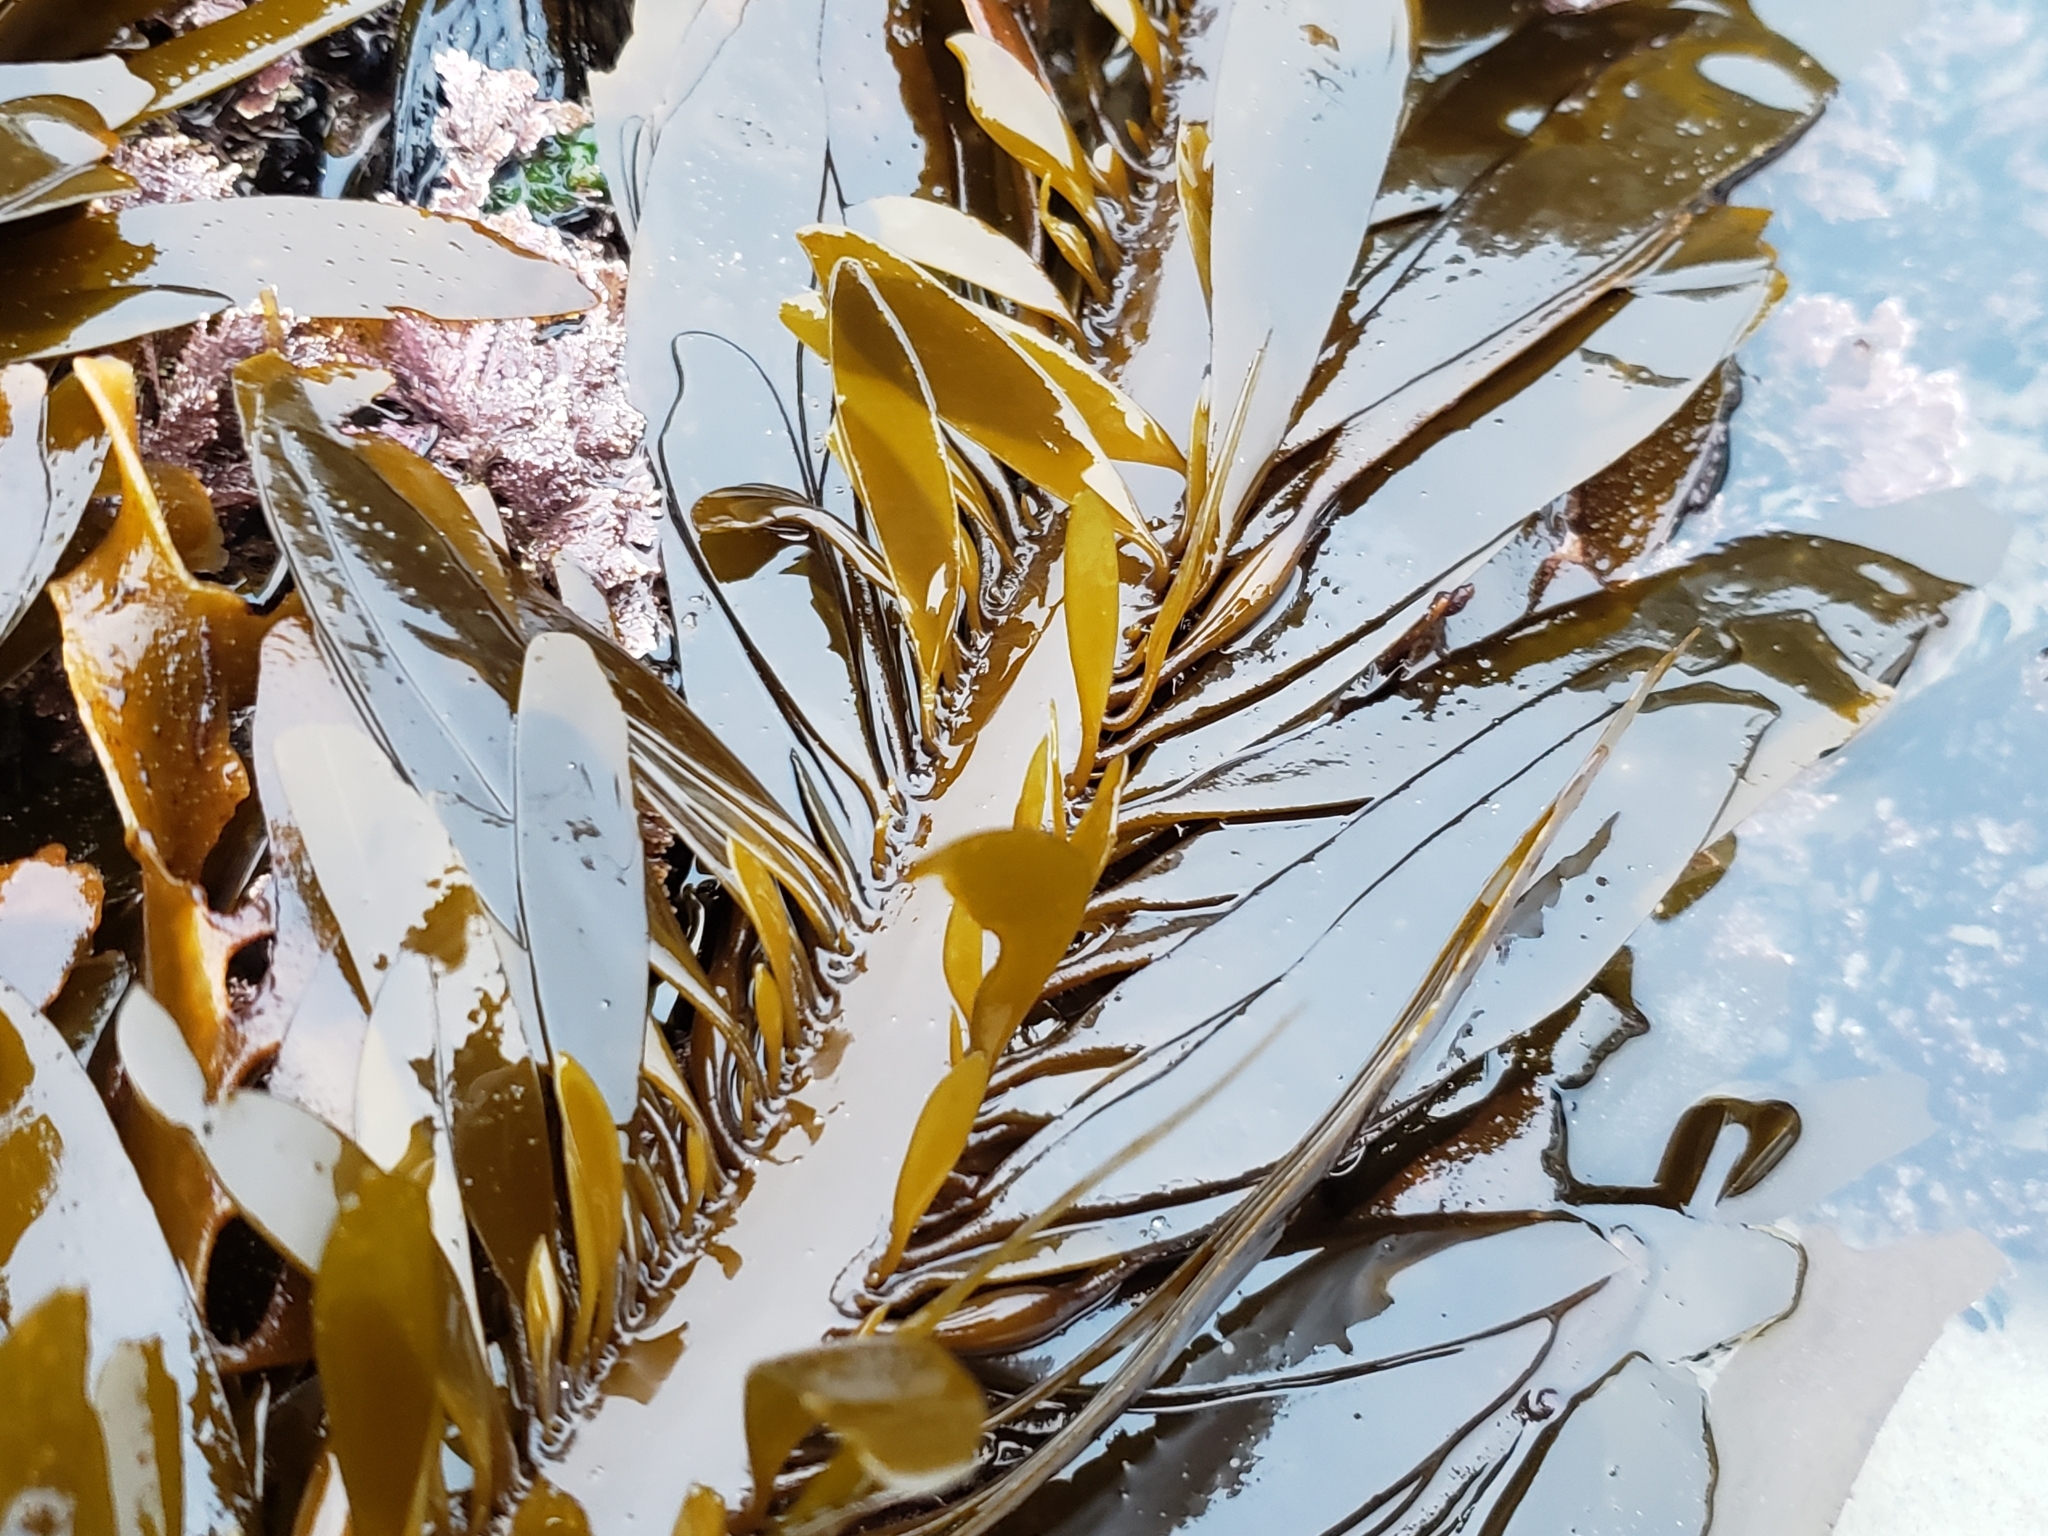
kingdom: Chromista
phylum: Ochrophyta
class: Phaeophyceae
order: Laminariales
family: Lessoniaceae
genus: Egregia
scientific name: Egregia menziesii
